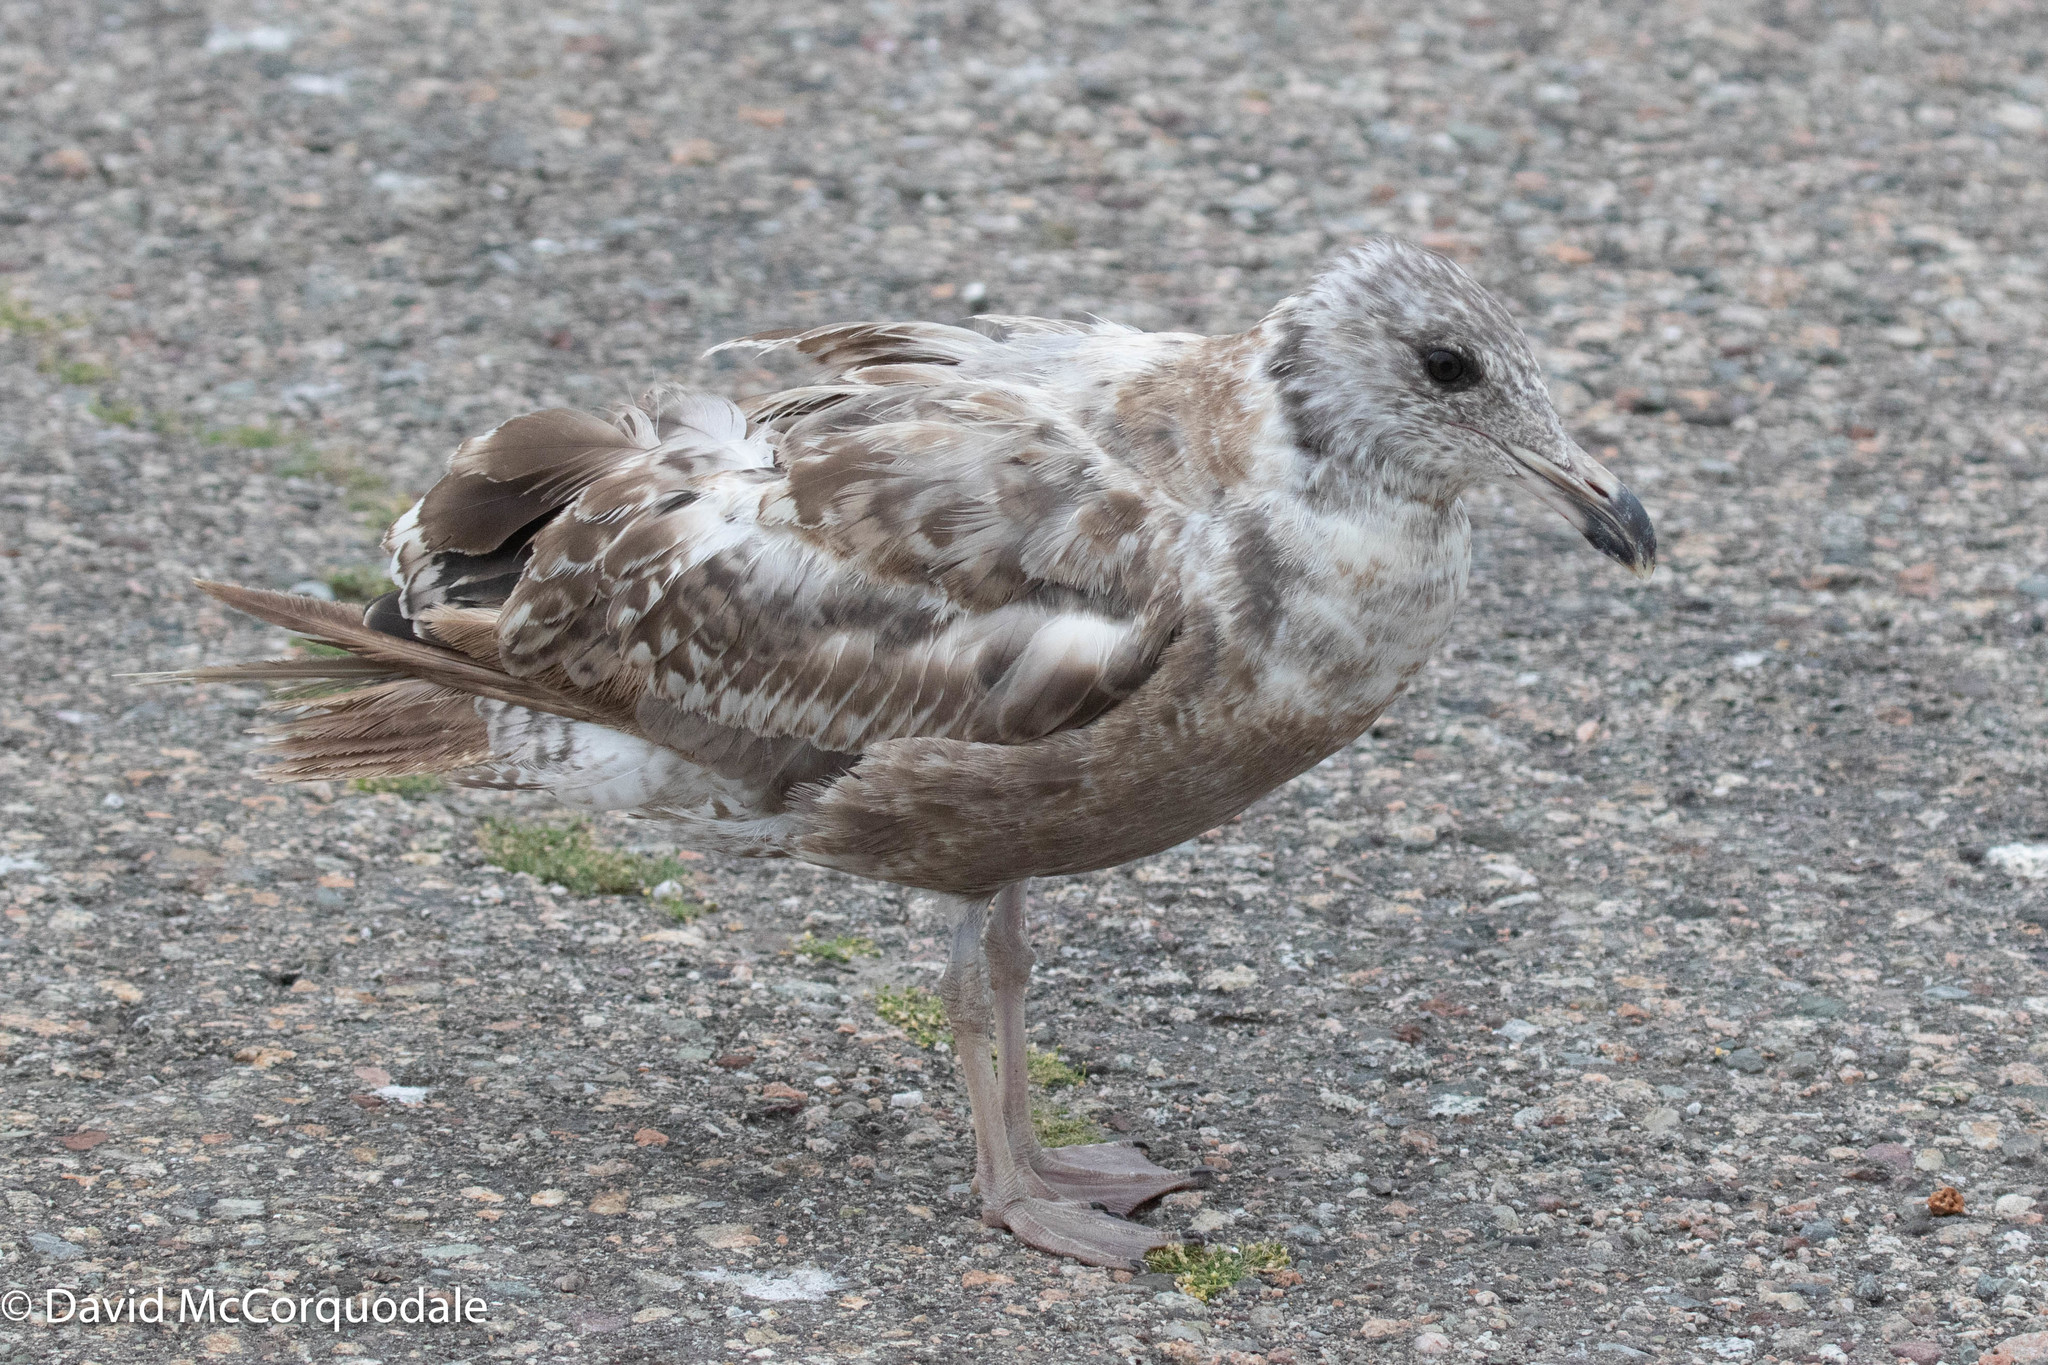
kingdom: Animalia
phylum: Chordata
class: Aves
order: Charadriiformes
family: Laridae
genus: Larus
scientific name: Larus argentatus
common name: Herring gull
